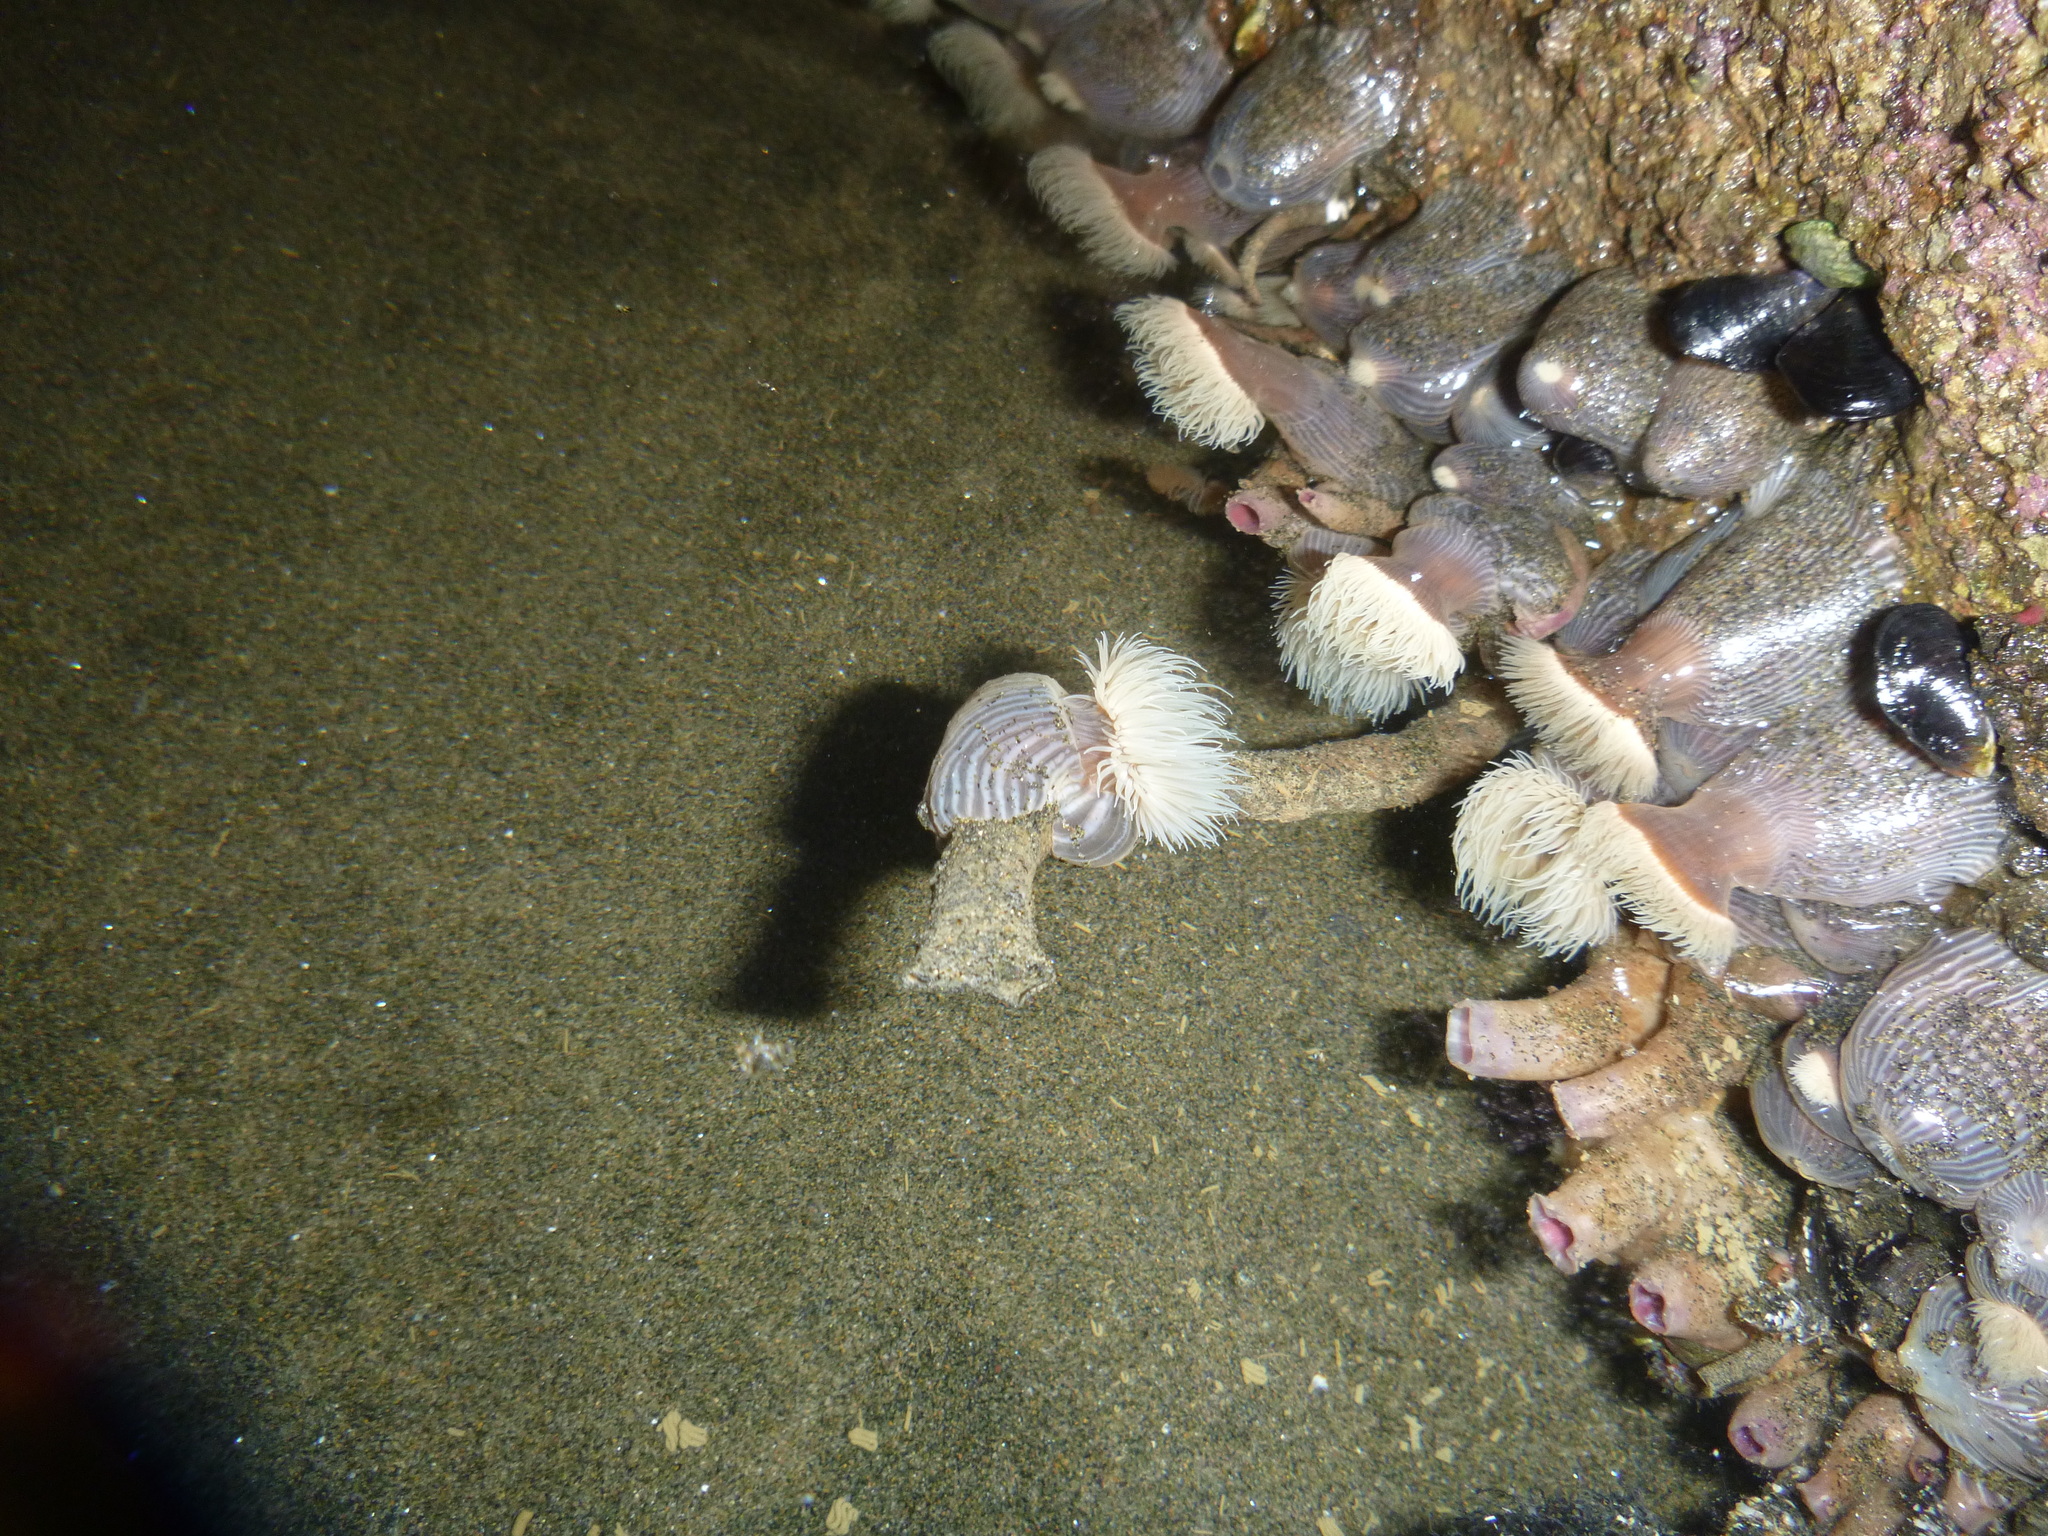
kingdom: Animalia
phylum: Mollusca
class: Bivalvia
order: Mytilida
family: Mytilidae
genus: Xenostrobus
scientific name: Xenostrobus neozelanicus
